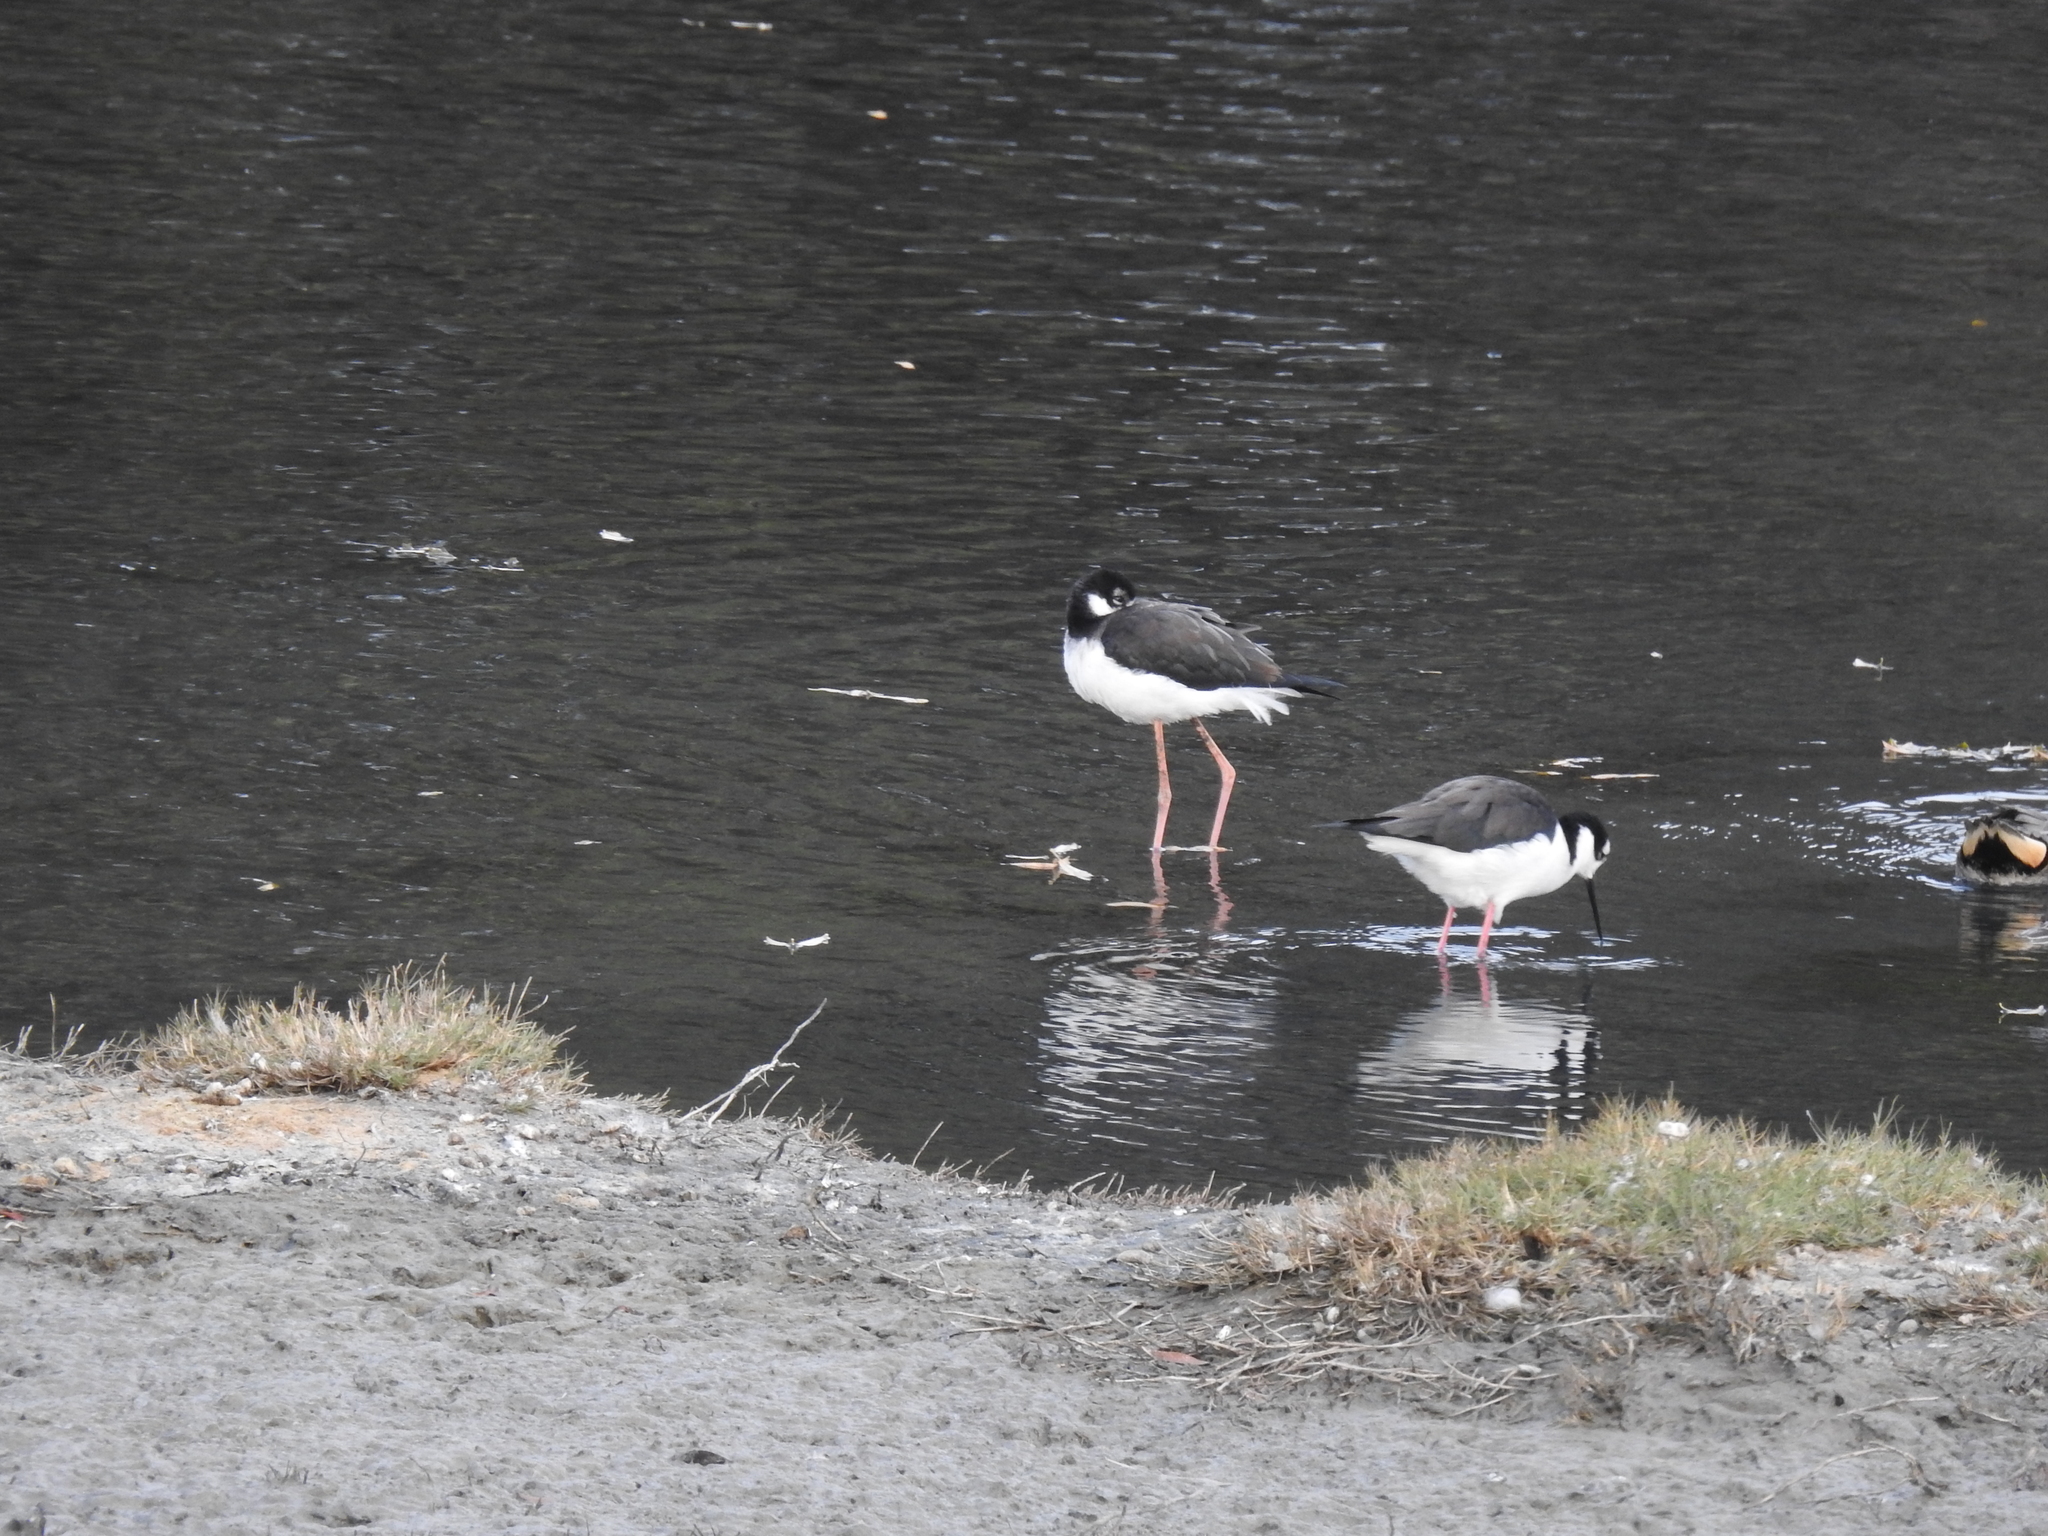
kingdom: Animalia
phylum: Chordata
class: Aves
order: Charadriiformes
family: Recurvirostridae
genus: Himantopus
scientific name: Himantopus mexicanus
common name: Black-necked stilt
